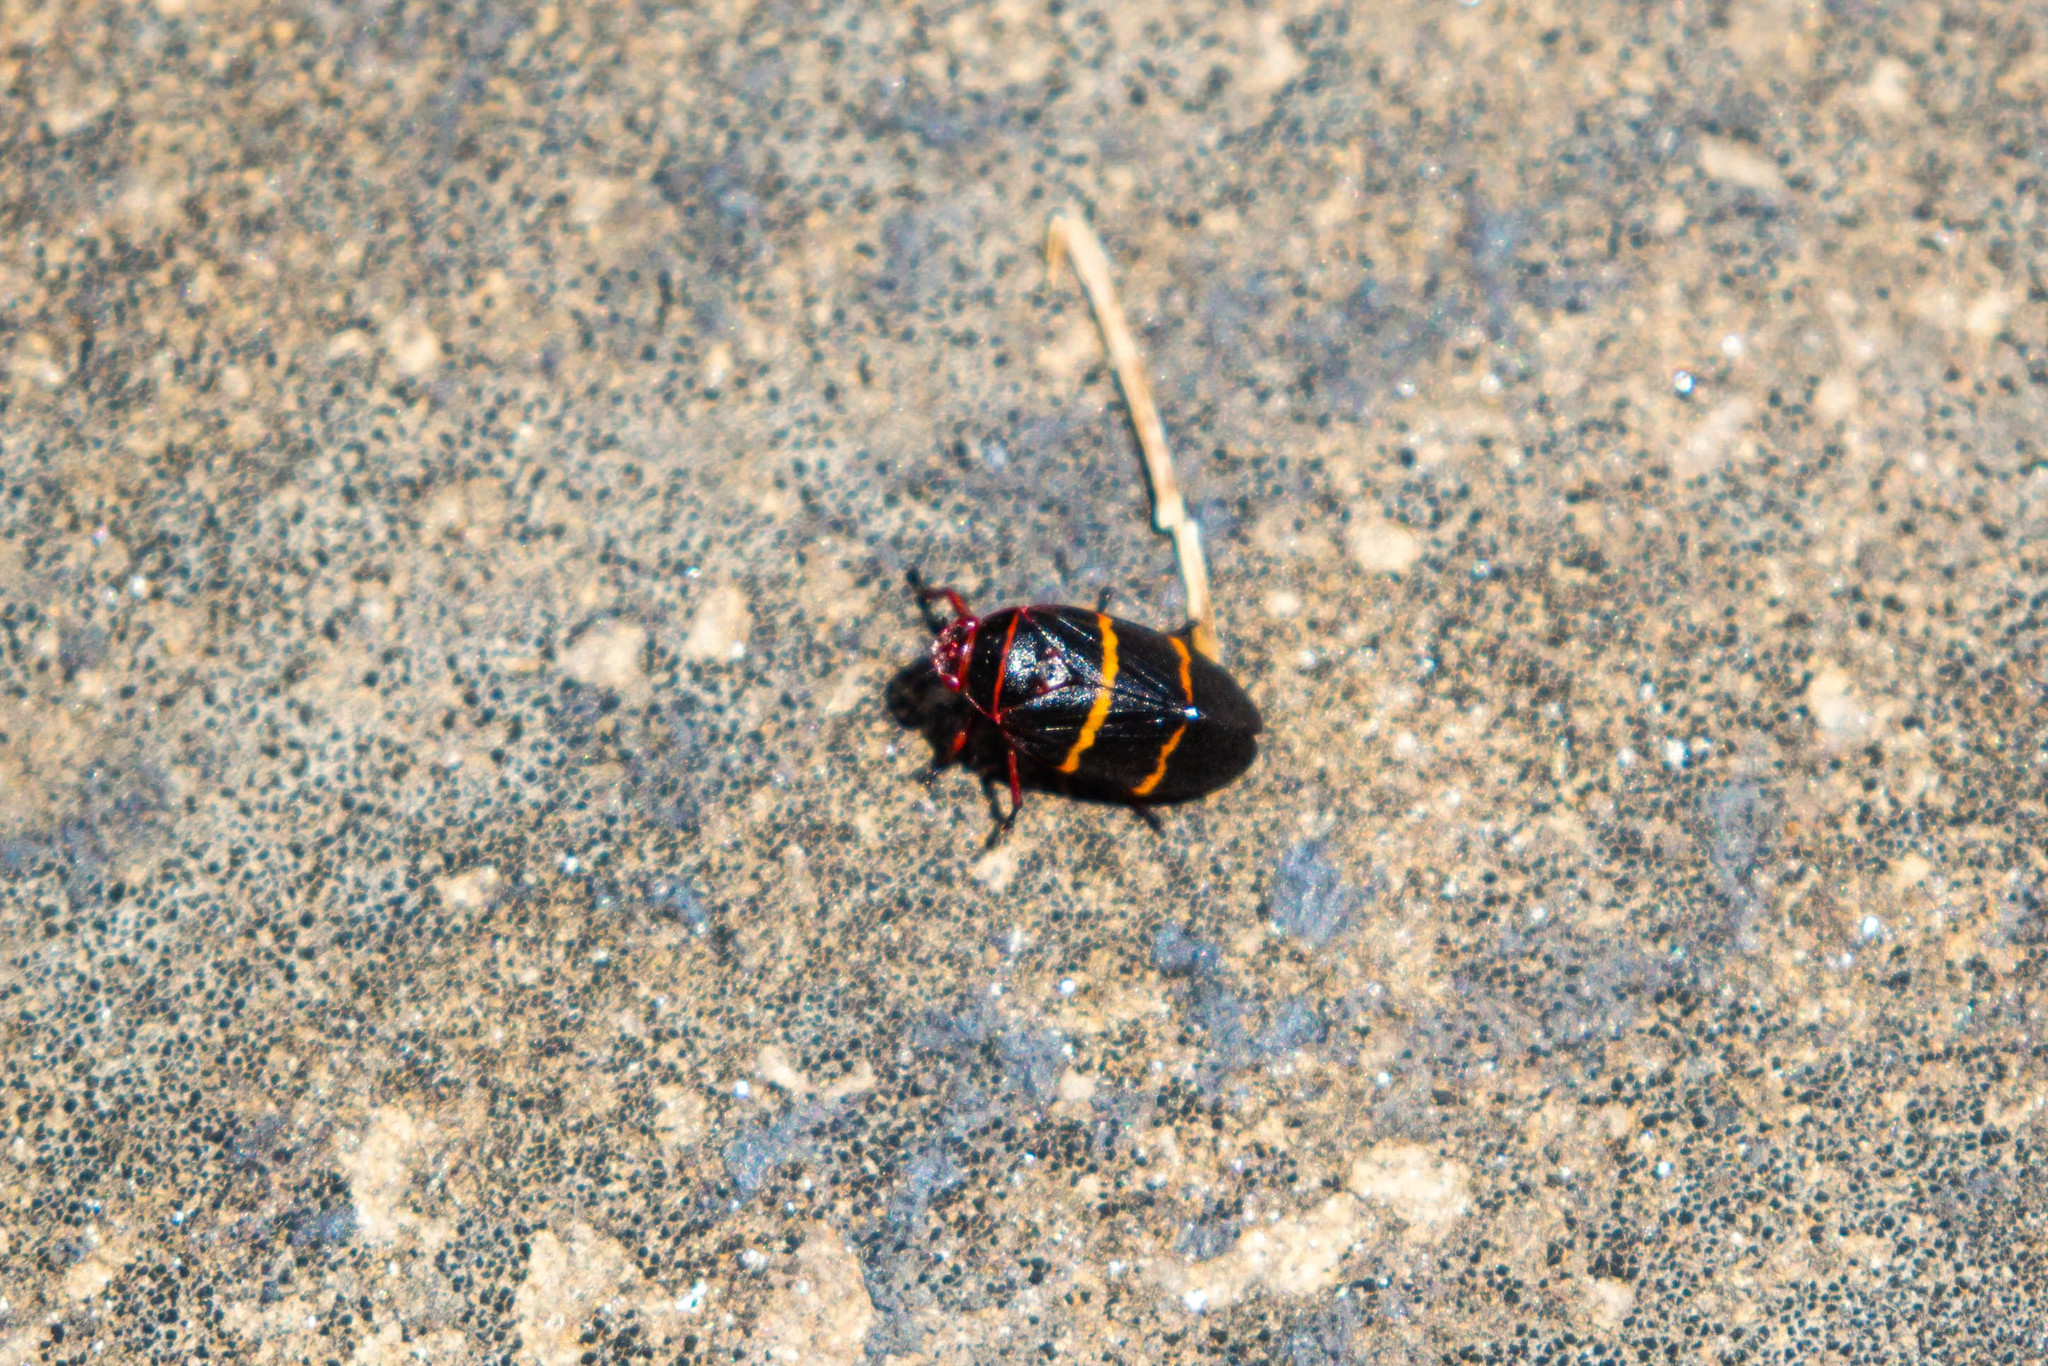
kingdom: Animalia
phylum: Arthropoda
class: Insecta
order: Hemiptera
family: Cercopidae
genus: Prosapia
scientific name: Prosapia bicincta
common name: Twolined spittlebug
